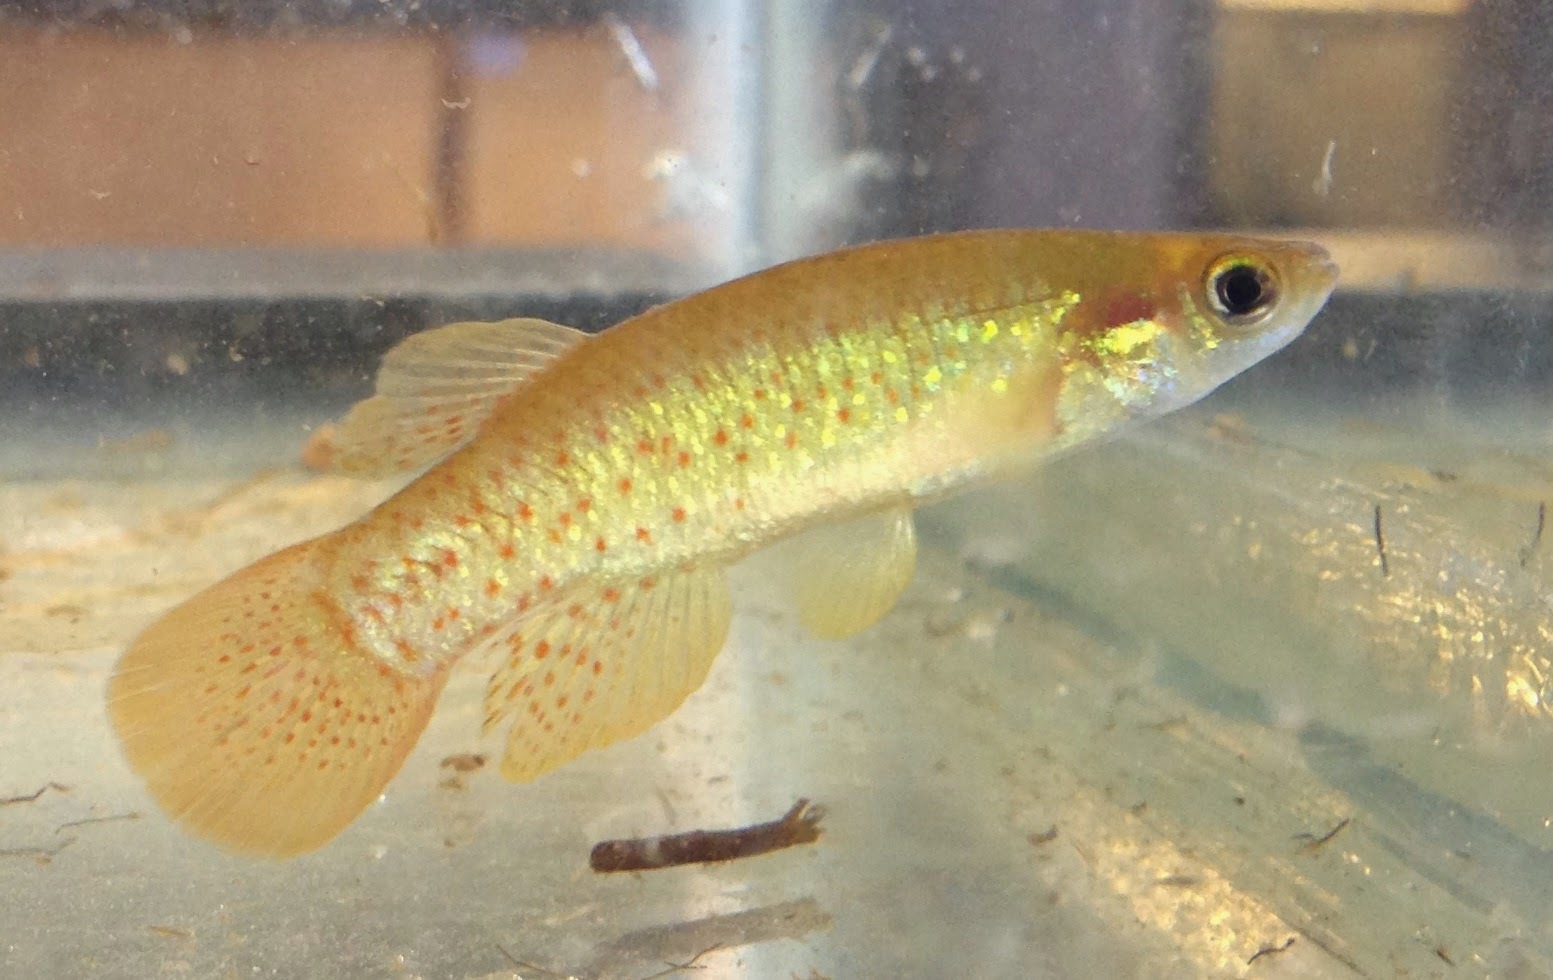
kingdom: Animalia
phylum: Chordata
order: Cyprinodontiformes
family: Fundulidae
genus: Fundulus
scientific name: Fundulus chrysotus
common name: Golden topminnow
